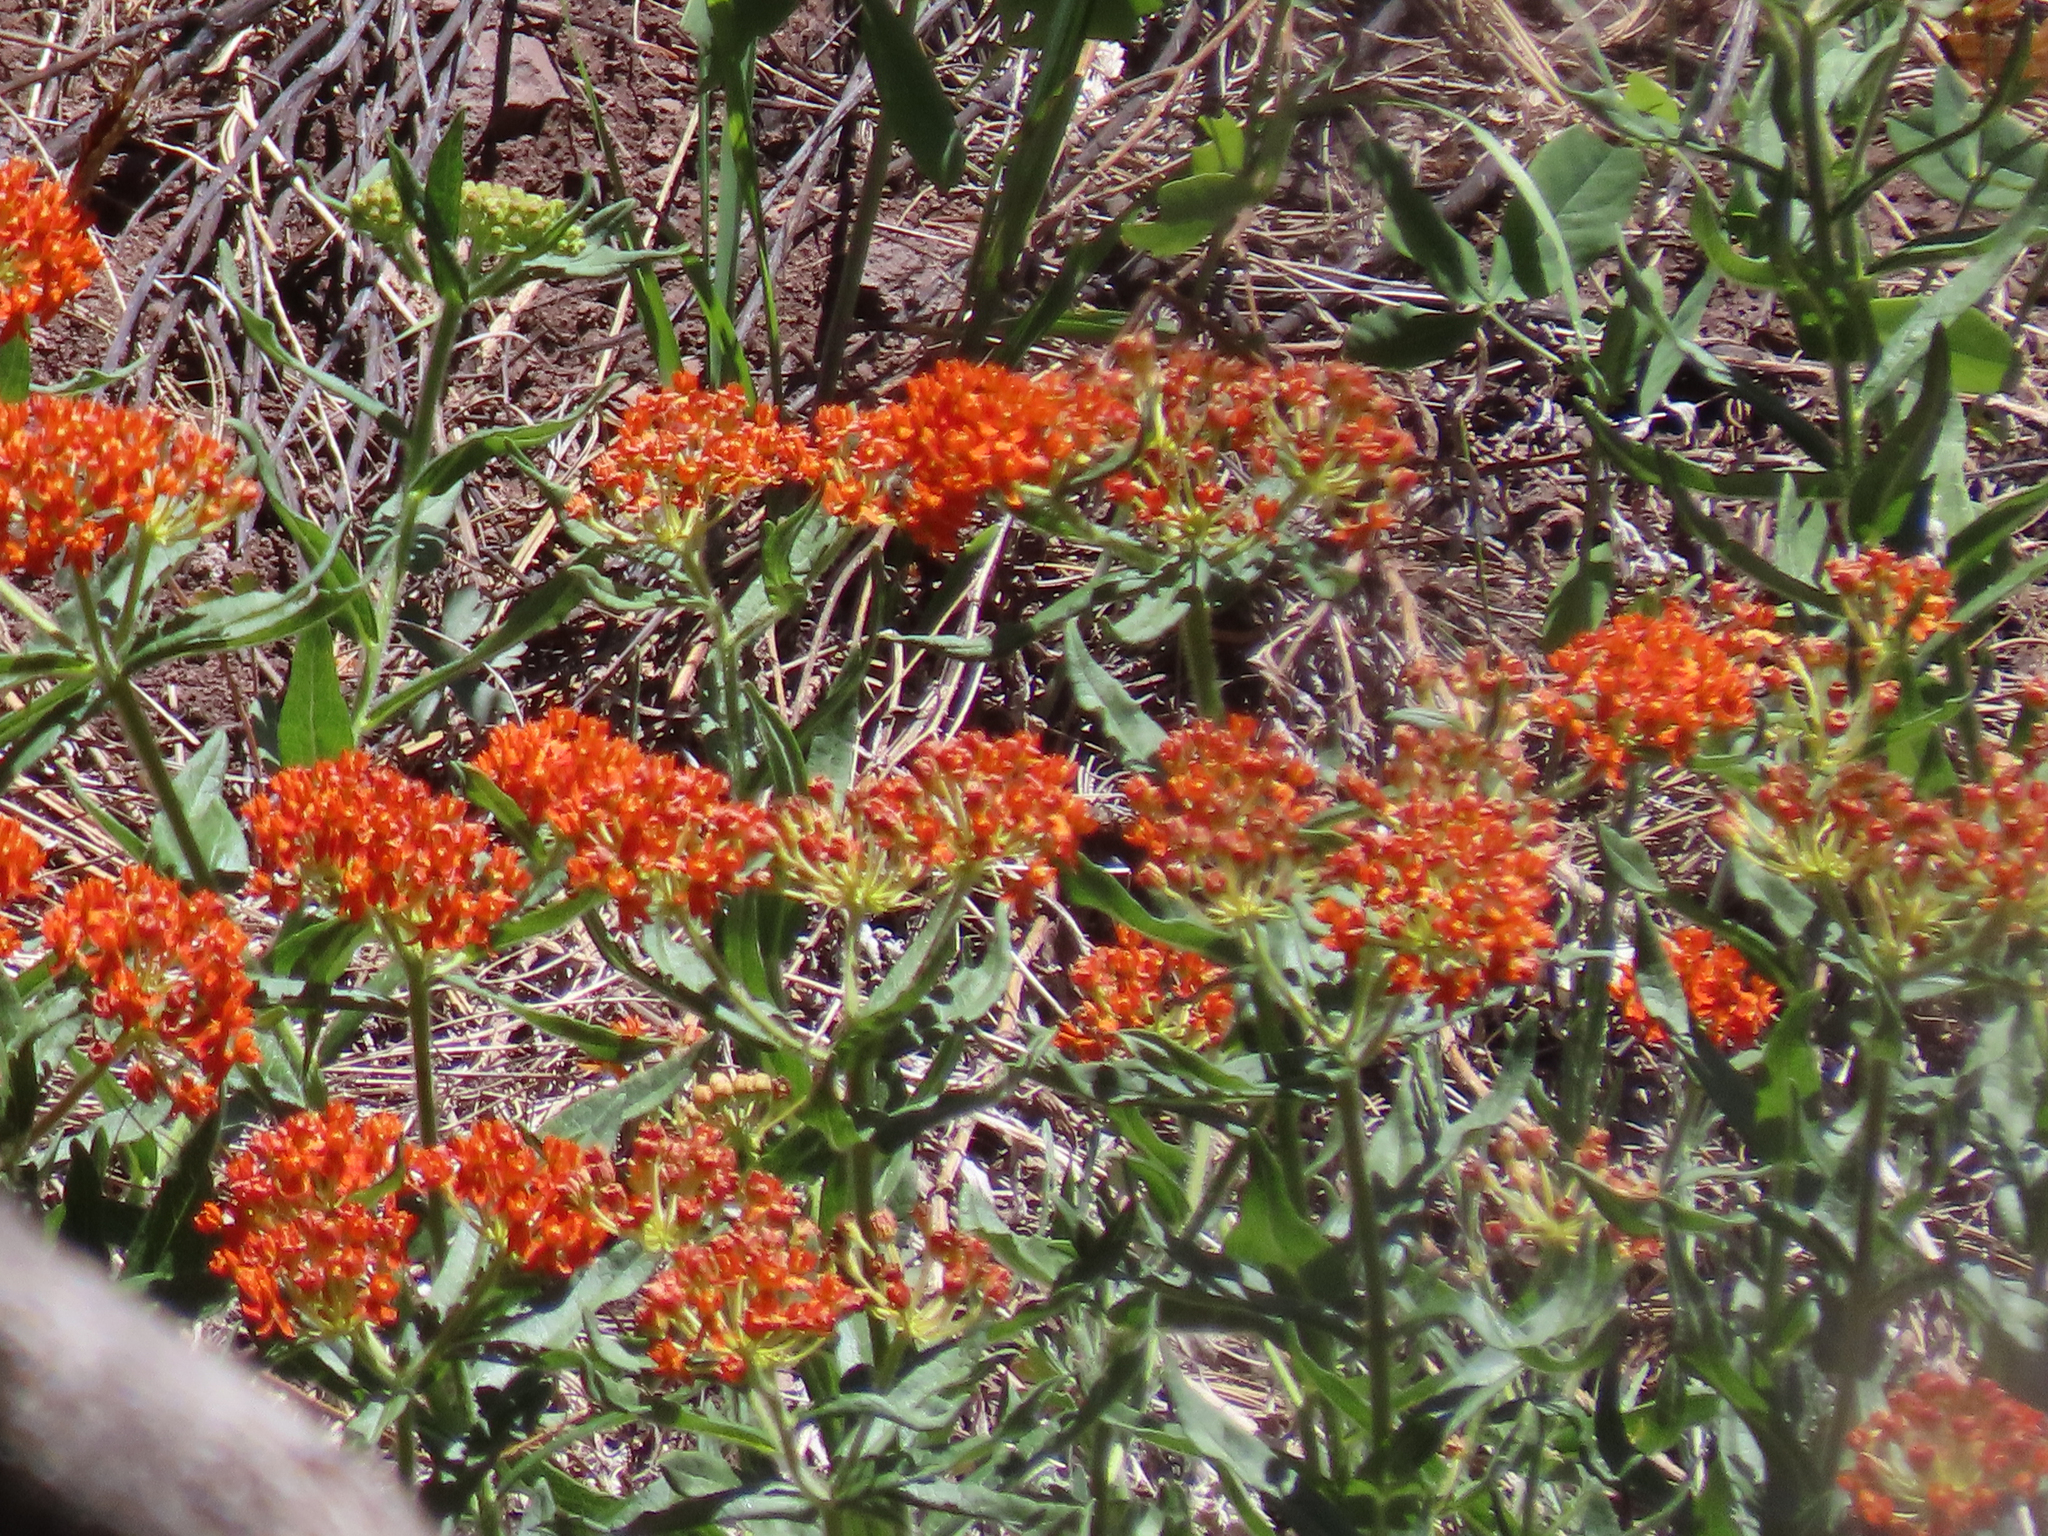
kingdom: Plantae
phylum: Tracheophyta
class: Magnoliopsida
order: Gentianales
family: Apocynaceae
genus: Asclepias
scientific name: Asclepias tuberosa
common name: Butterfly milkweed
